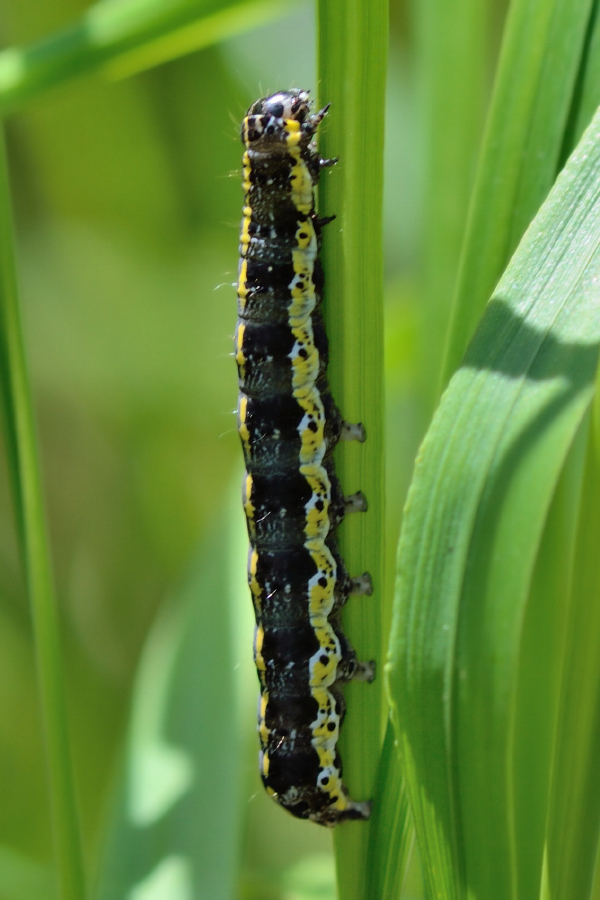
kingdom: Animalia
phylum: Arthropoda
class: Insecta
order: Lepidoptera
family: Noctuidae
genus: Orthosia
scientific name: Orthosia miniosa
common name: Blossom underwing
